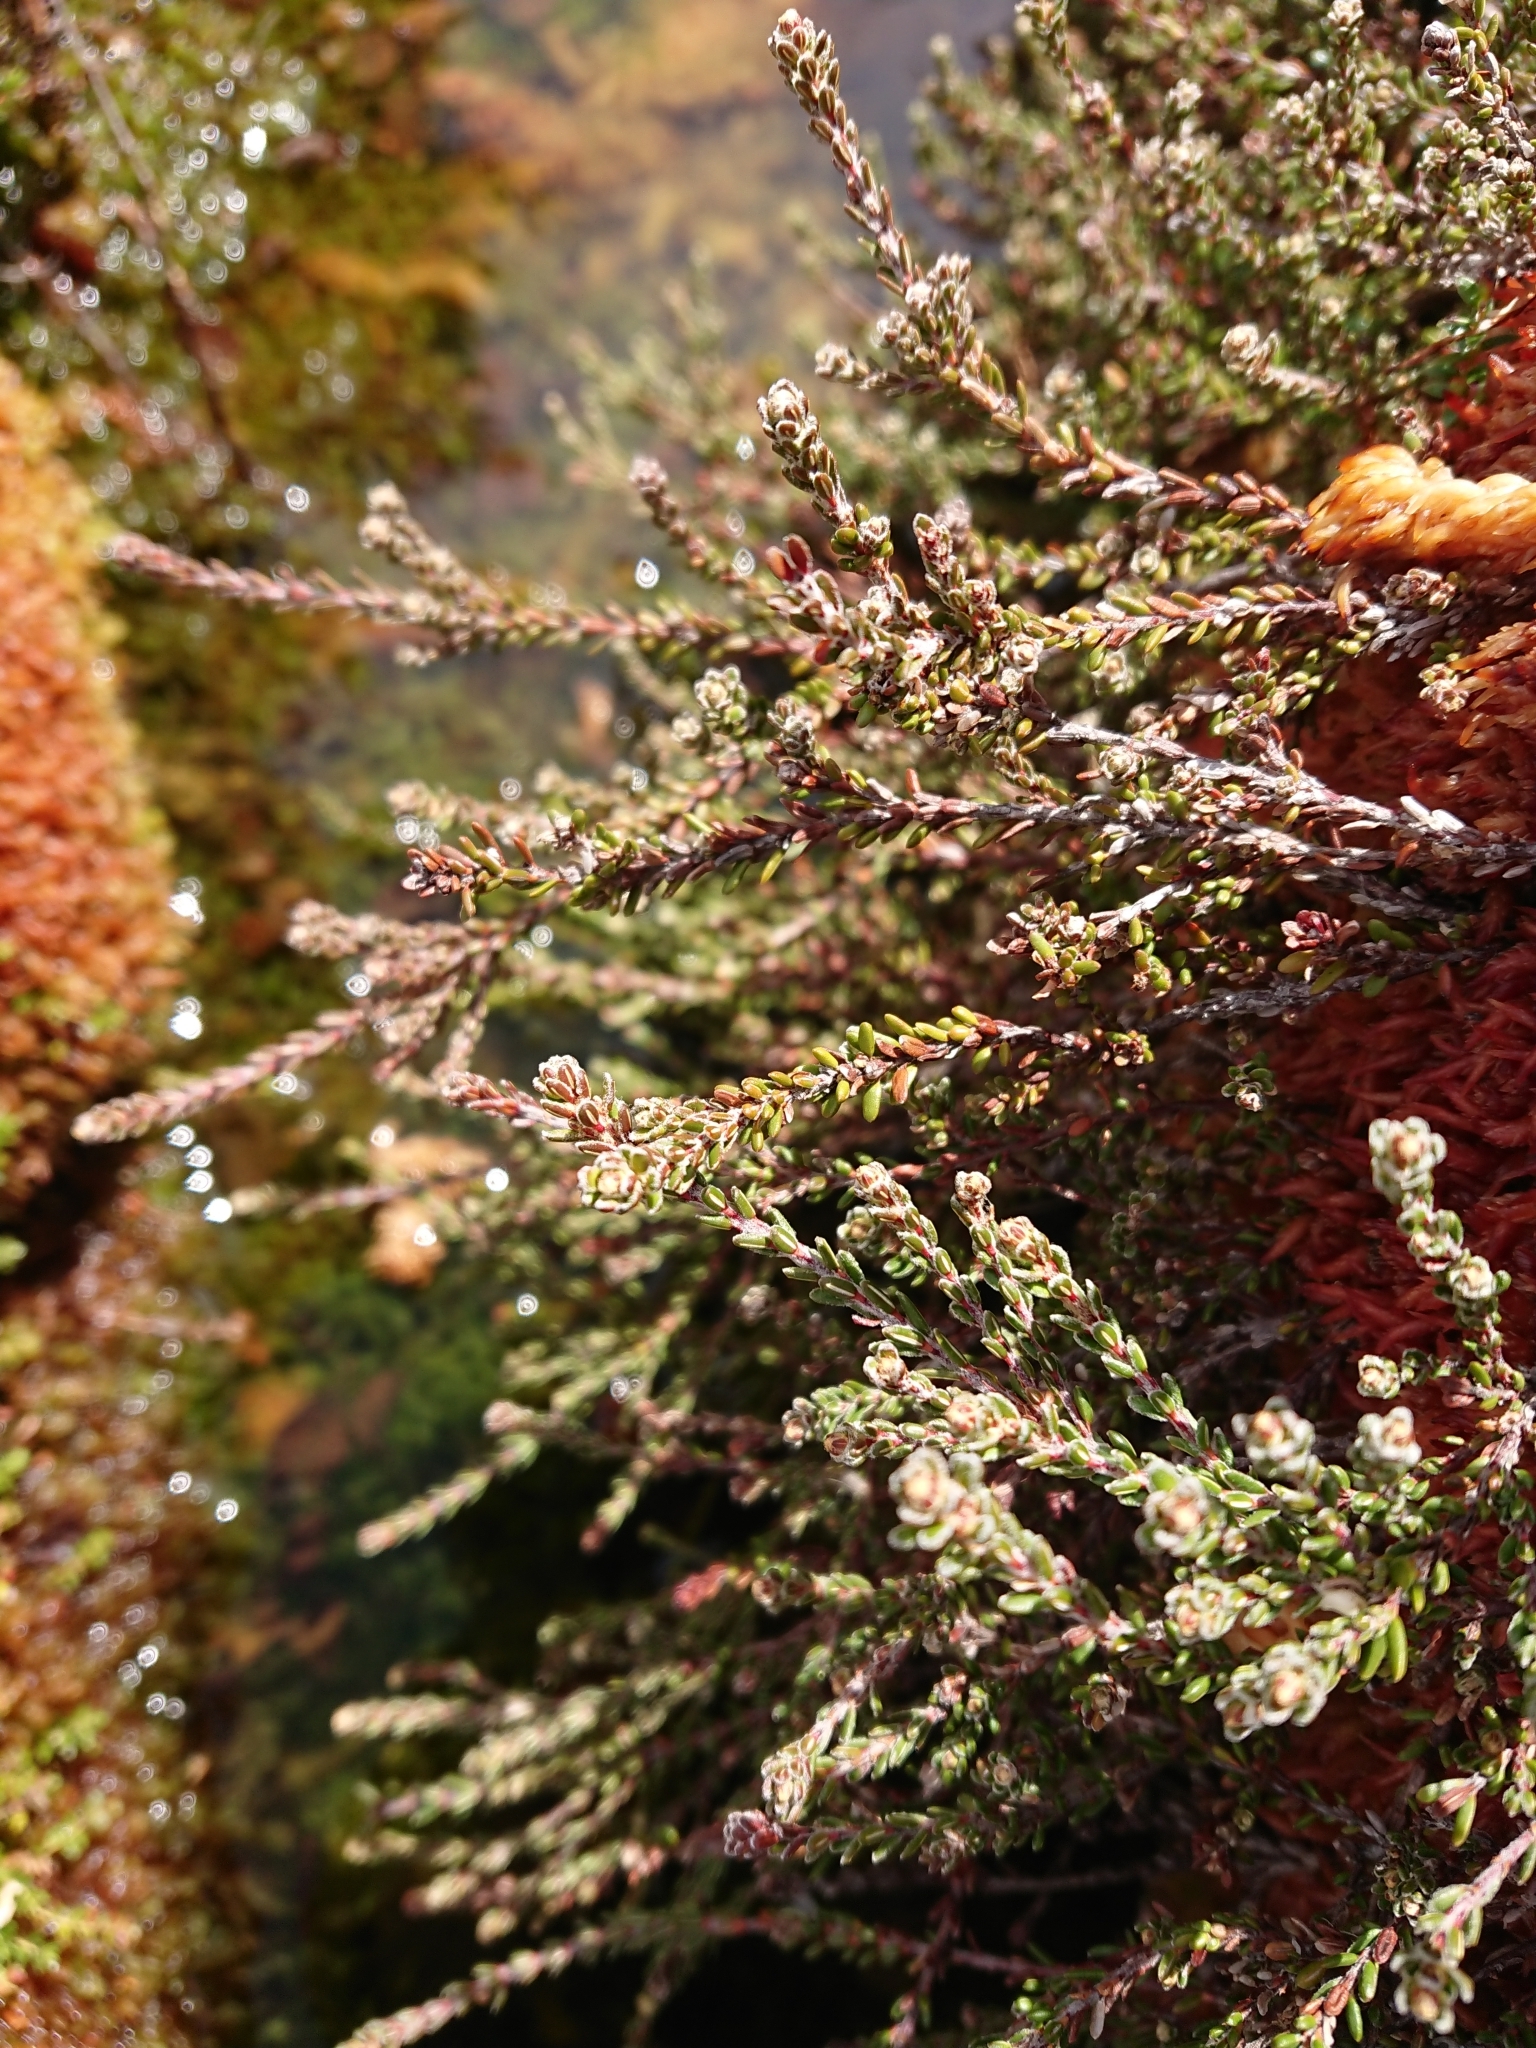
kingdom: Plantae
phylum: Tracheophyta
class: Magnoliopsida
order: Ericales
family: Ericaceae
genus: Empetrum
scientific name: Empetrum rubrum
